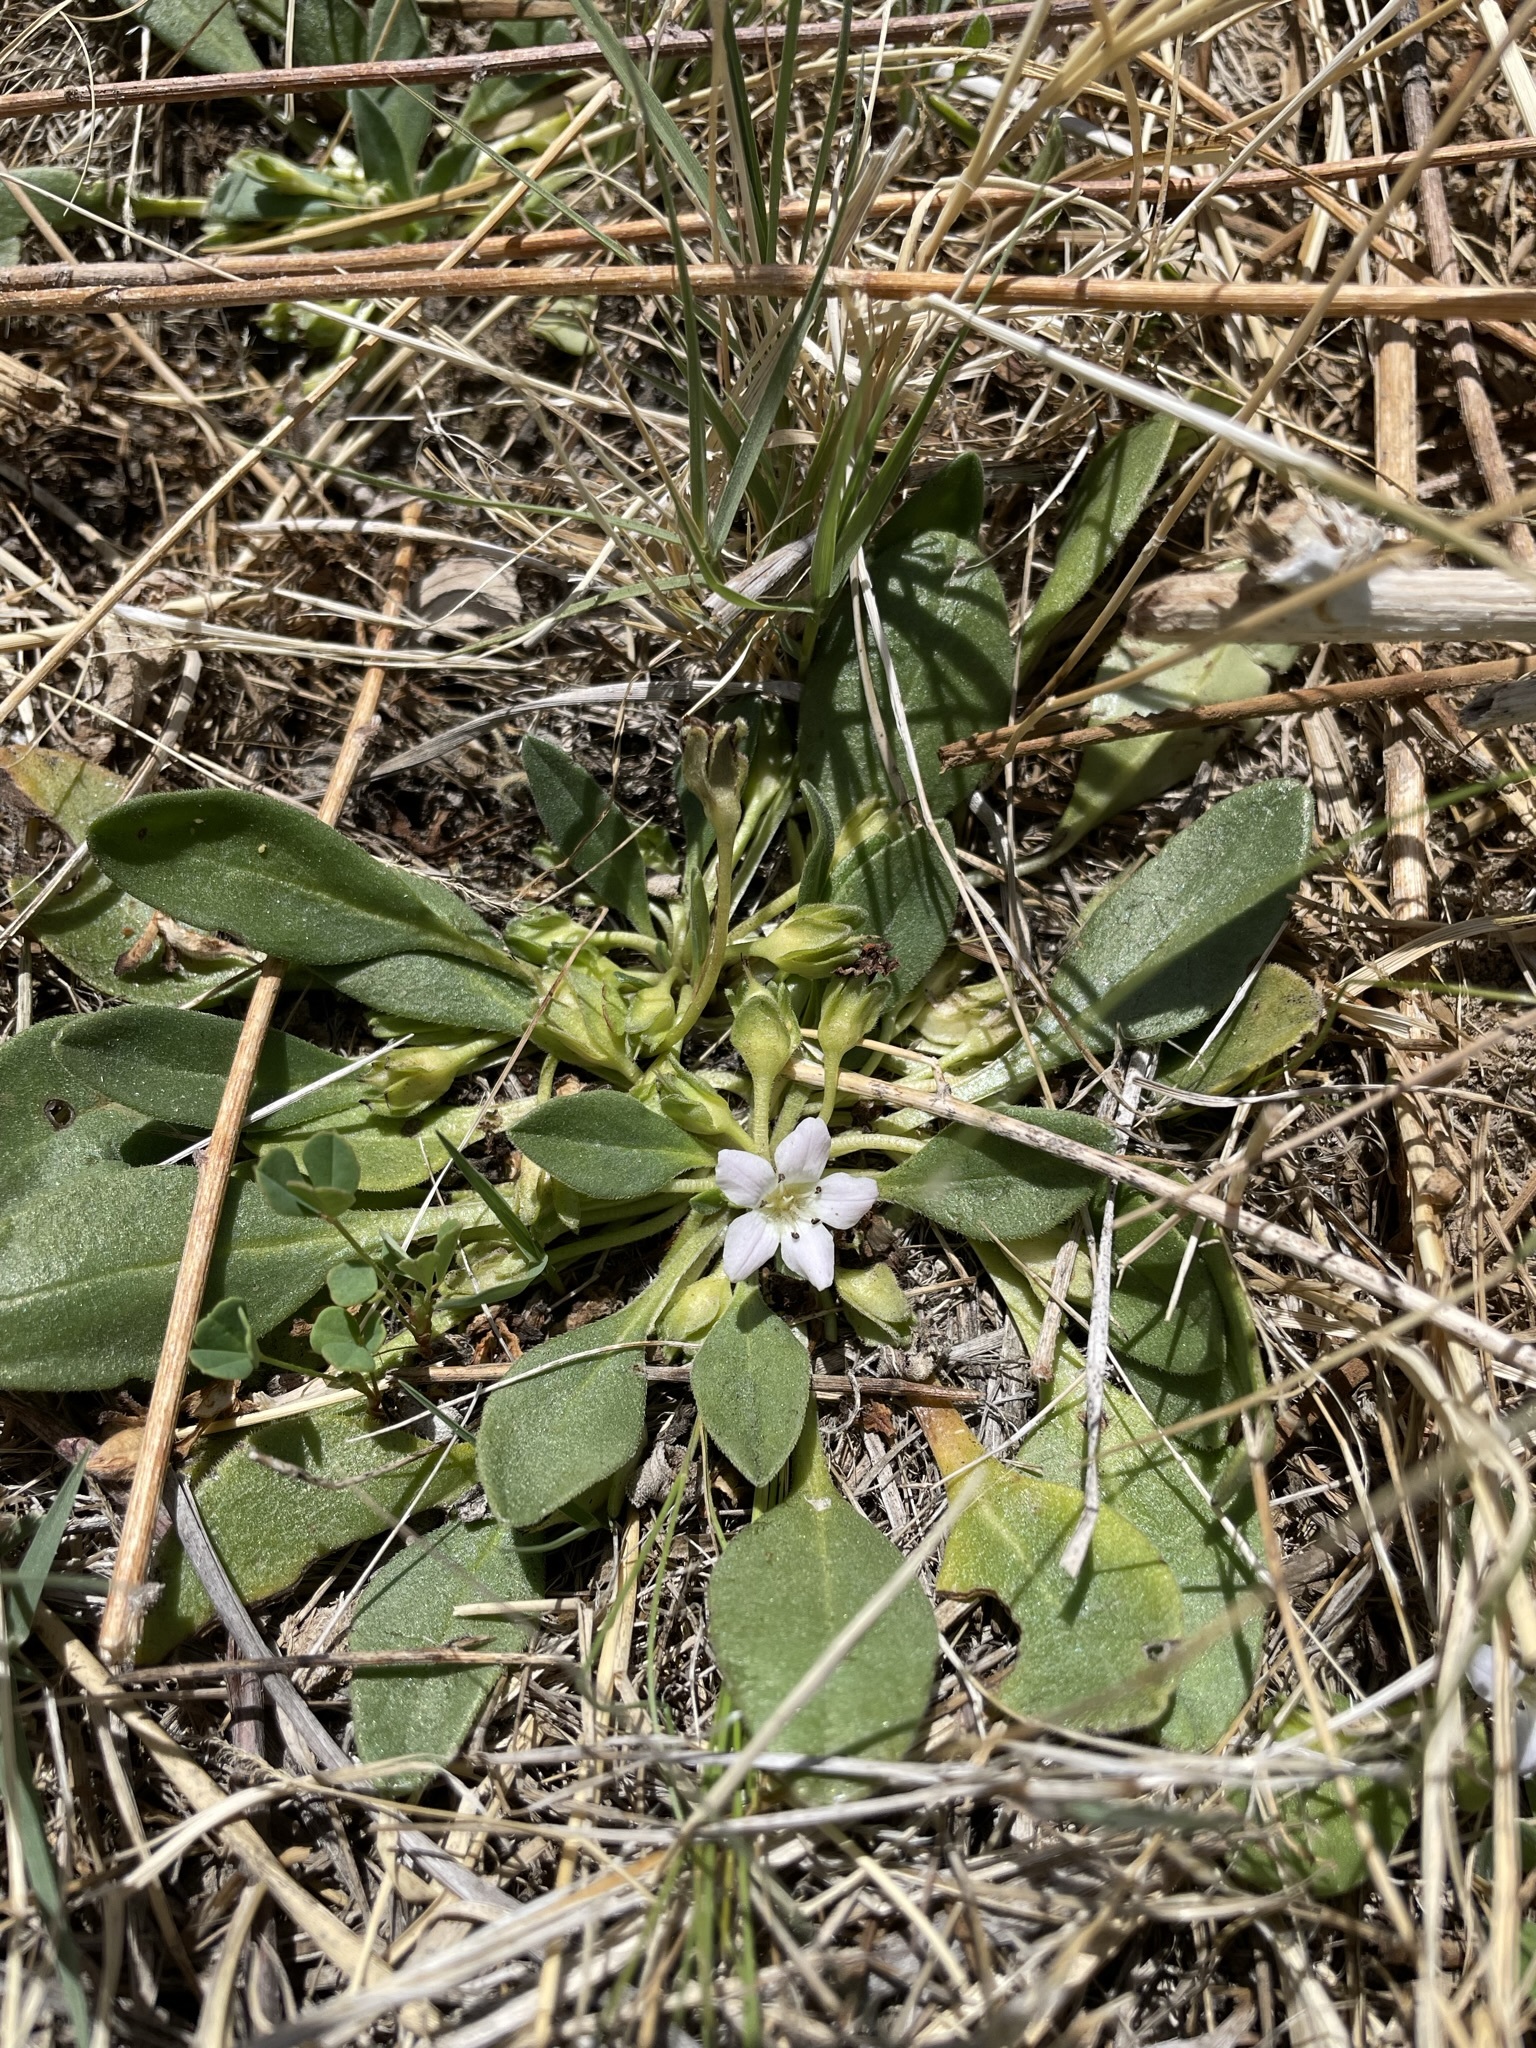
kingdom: Plantae
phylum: Tracheophyta
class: Magnoliopsida
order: Boraginales
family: Hydrophyllaceae
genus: Hesperochiron
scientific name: Hesperochiron californicus
